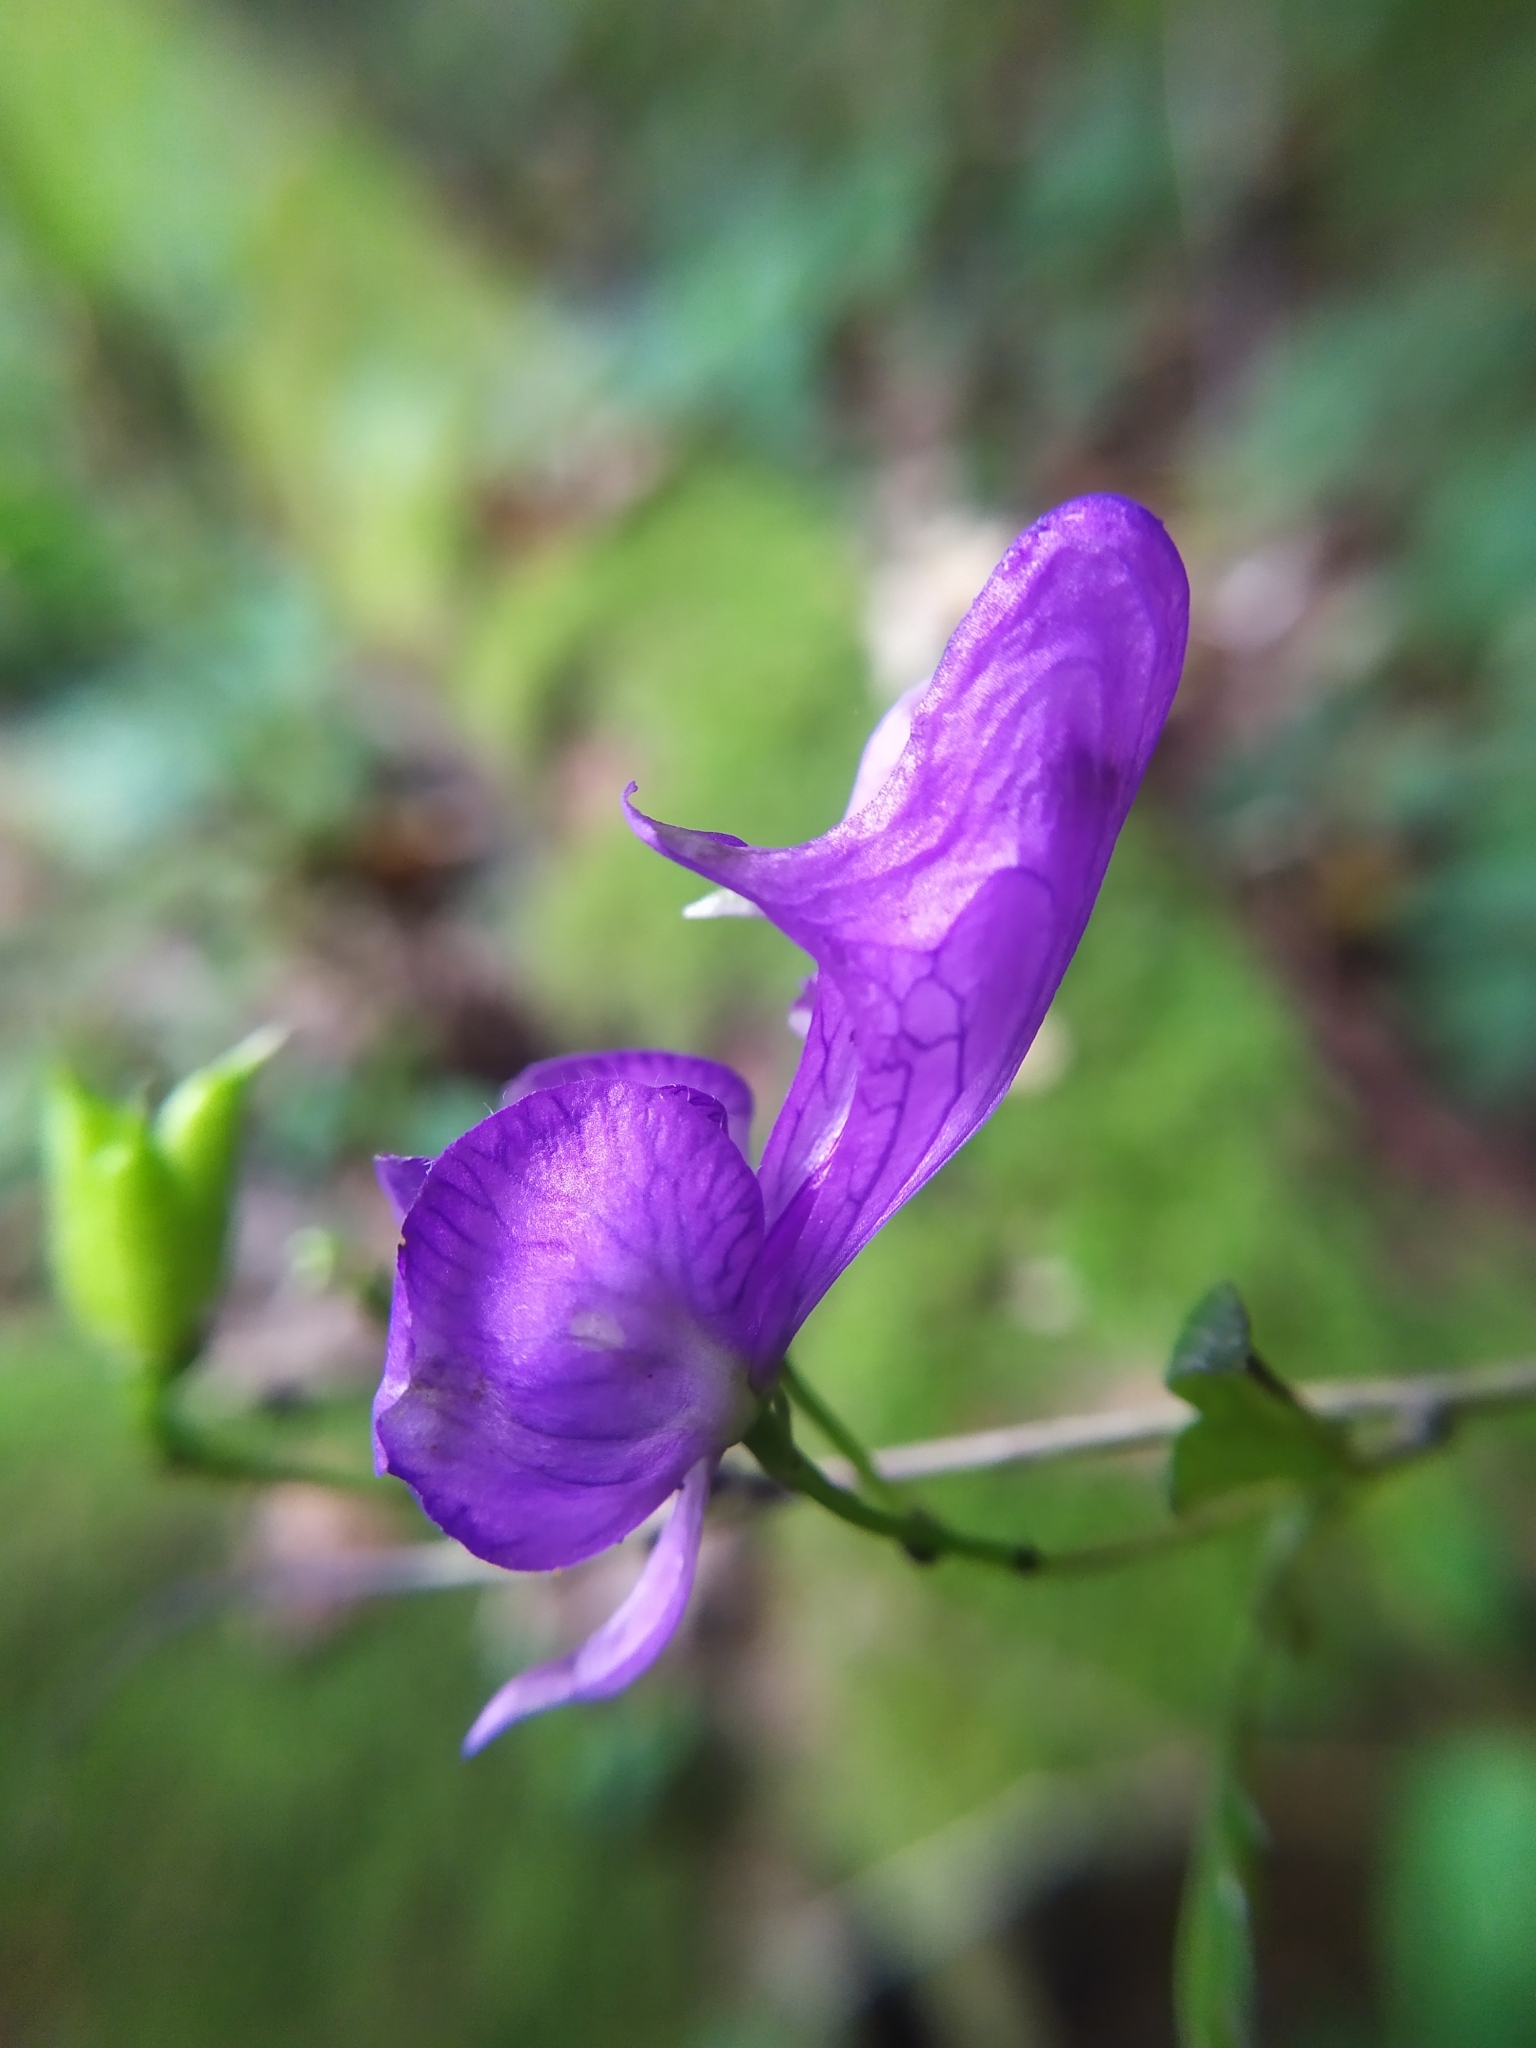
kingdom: Plantae
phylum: Tracheophyta
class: Magnoliopsida
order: Ranunculales
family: Ranunculaceae
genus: Aconitum
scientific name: Aconitum variegatum
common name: Manchurian monkshood
